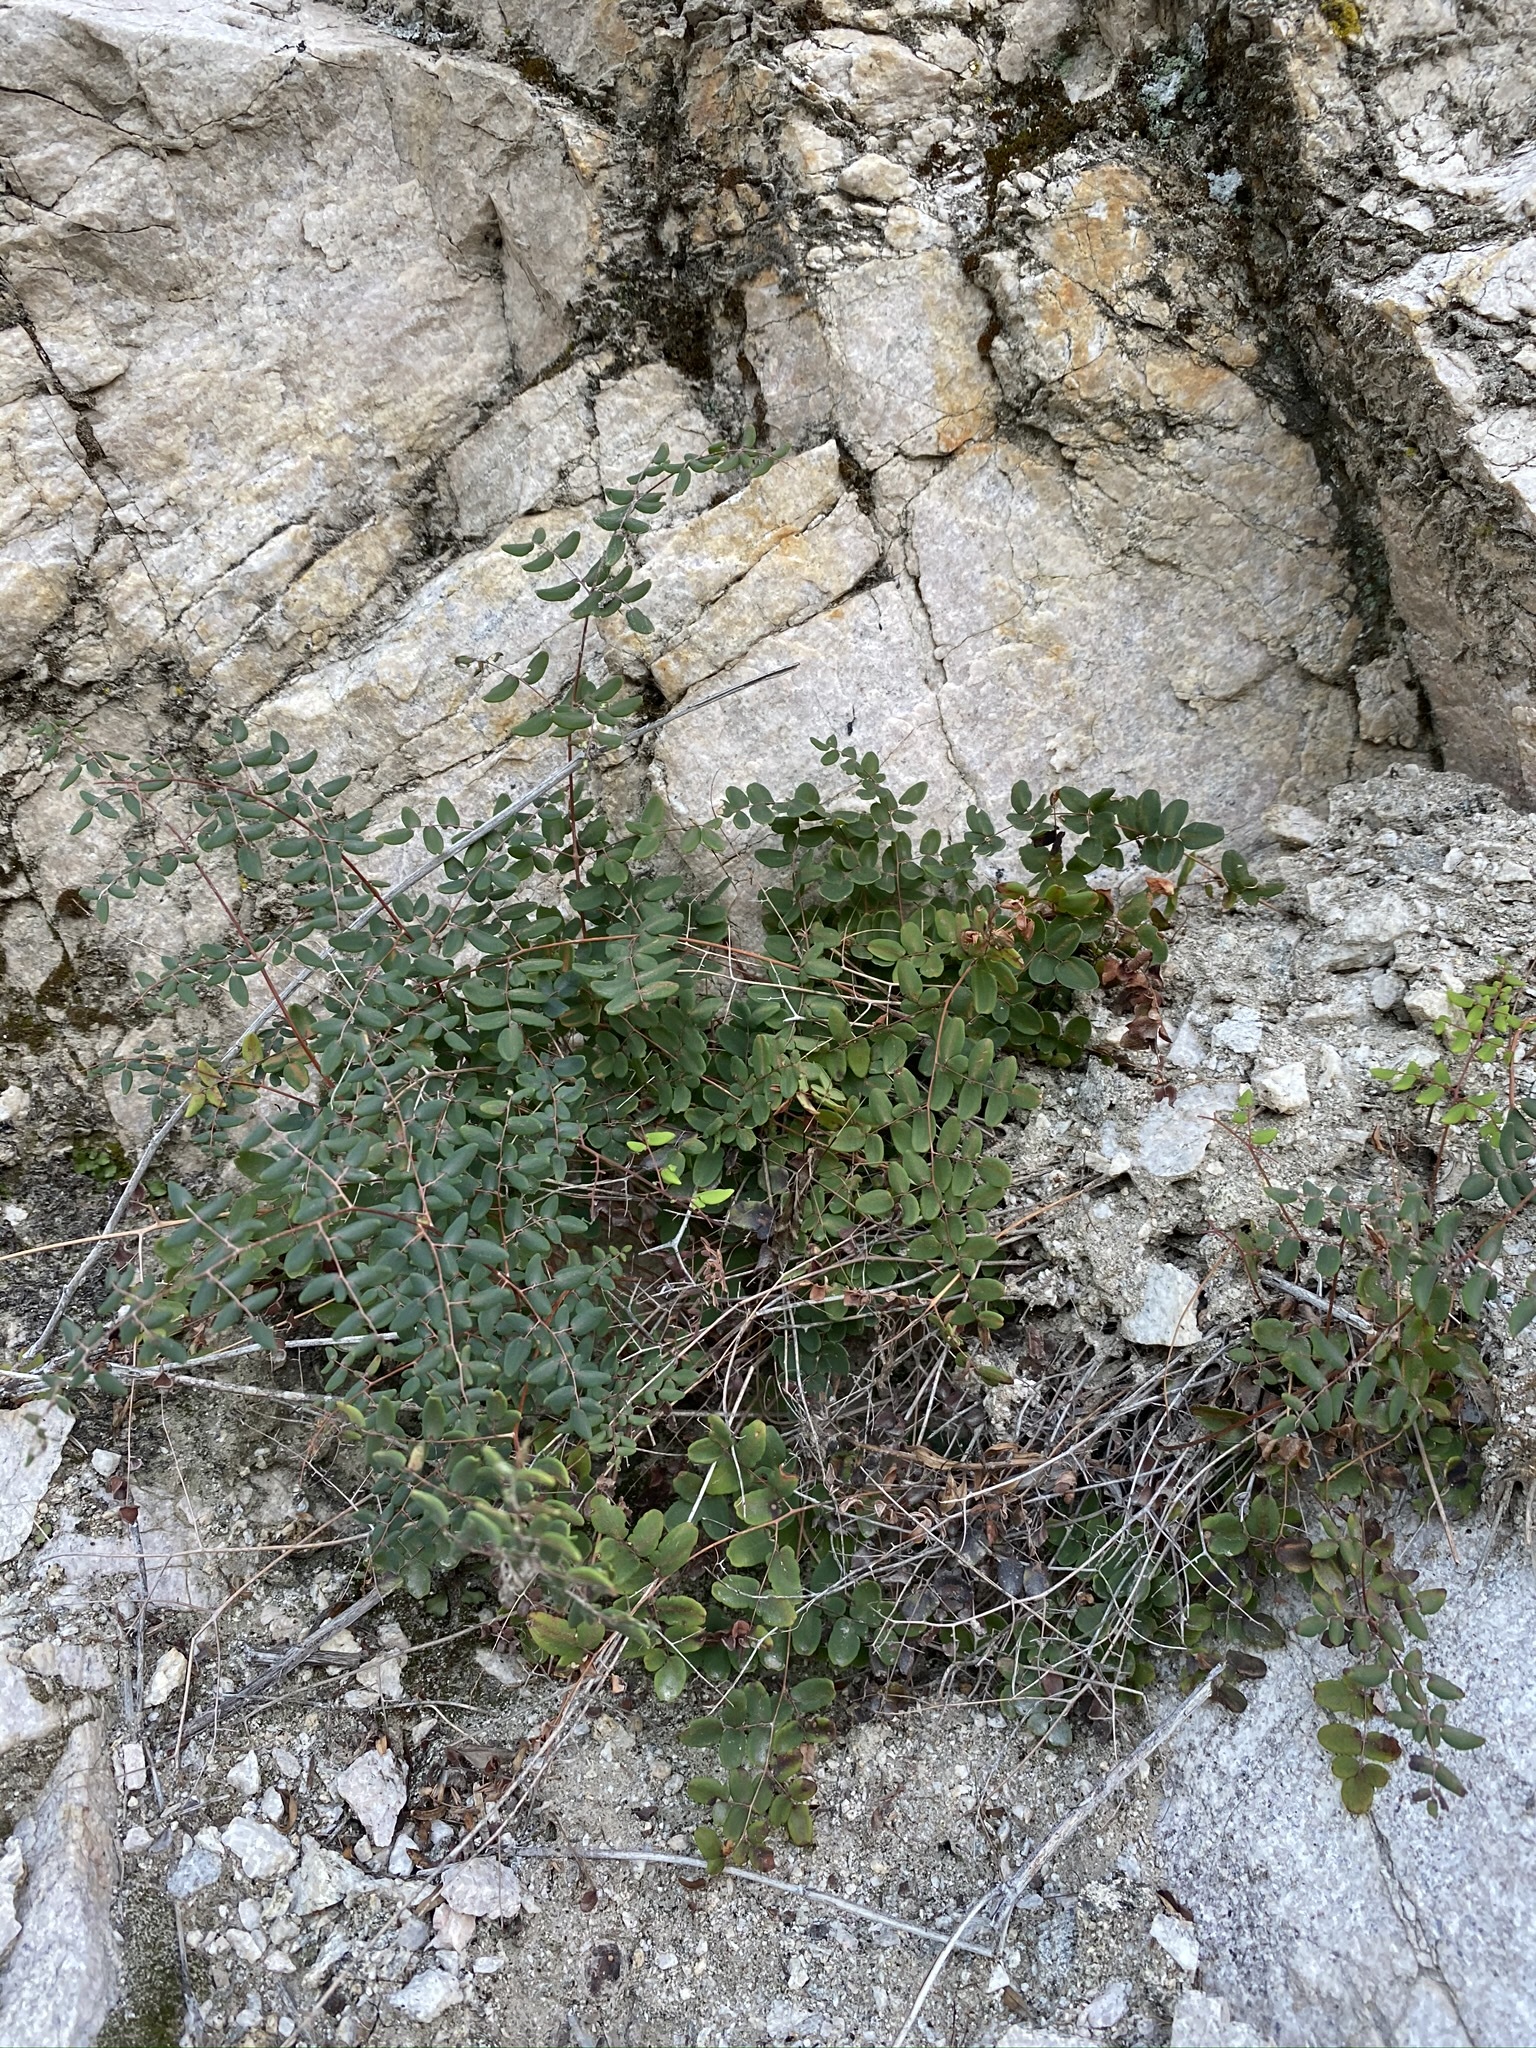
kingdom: Plantae
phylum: Tracheophyta
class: Polypodiopsida
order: Polypodiales
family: Pteridaceae
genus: Pellaea
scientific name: Pellaea andromedifolia
